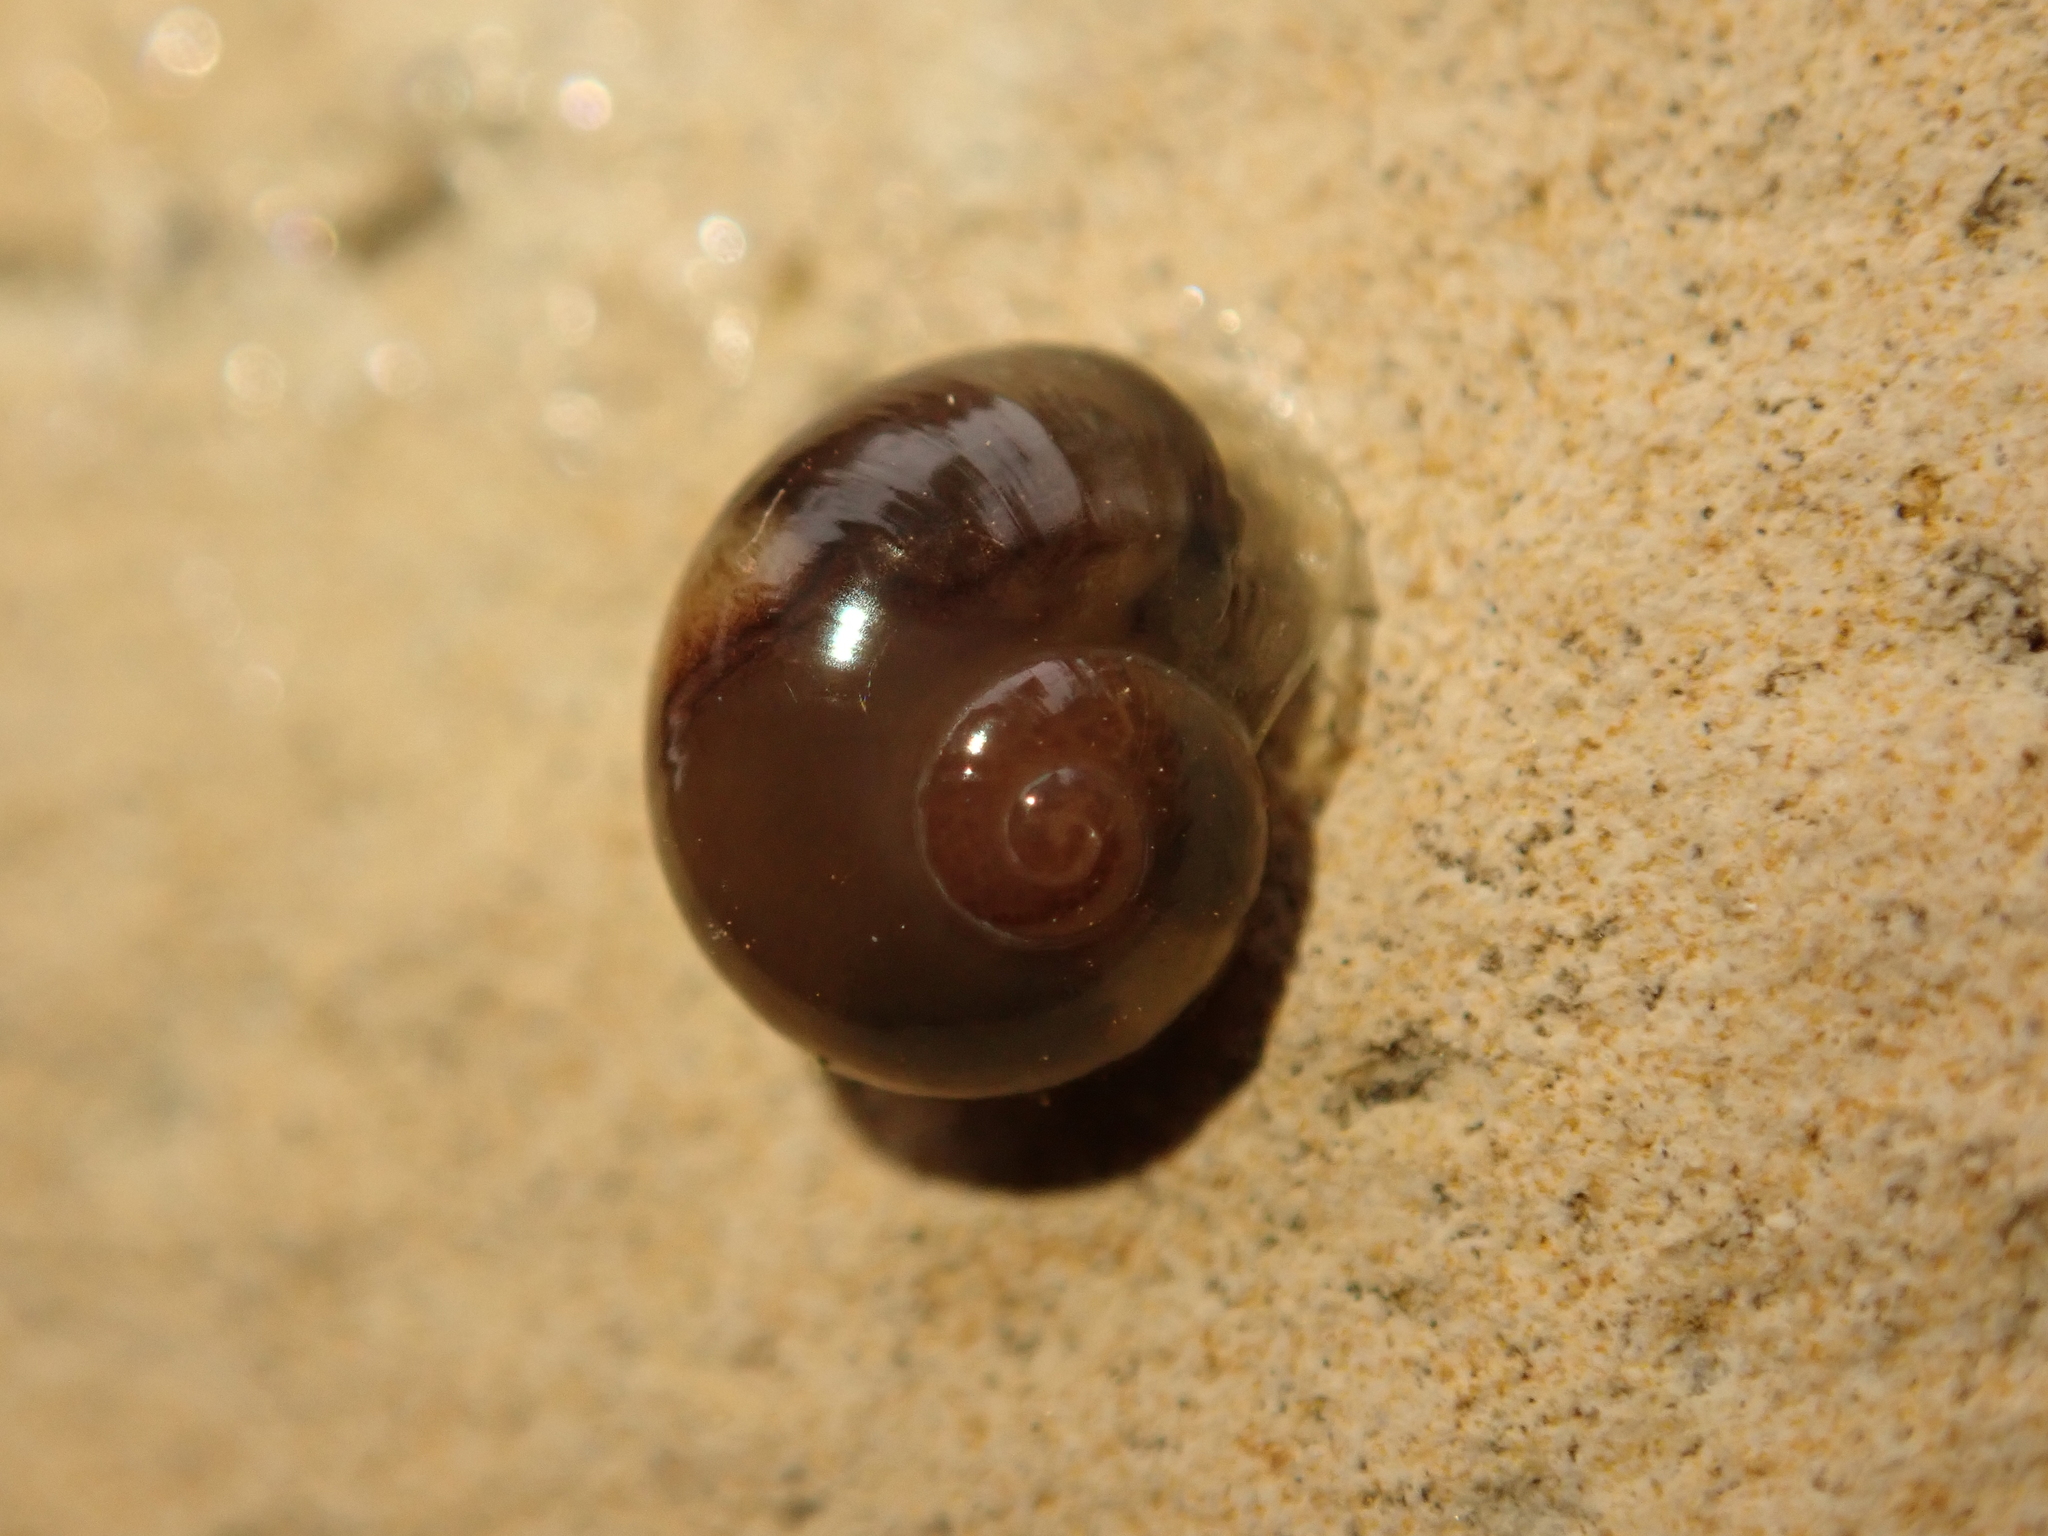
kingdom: Animalia
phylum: Mollusca
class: Gastropoda
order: Stylommatophora
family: Vitrinidae
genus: Vitrina
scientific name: Vitrina pellucida
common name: Pellucid glass snail
